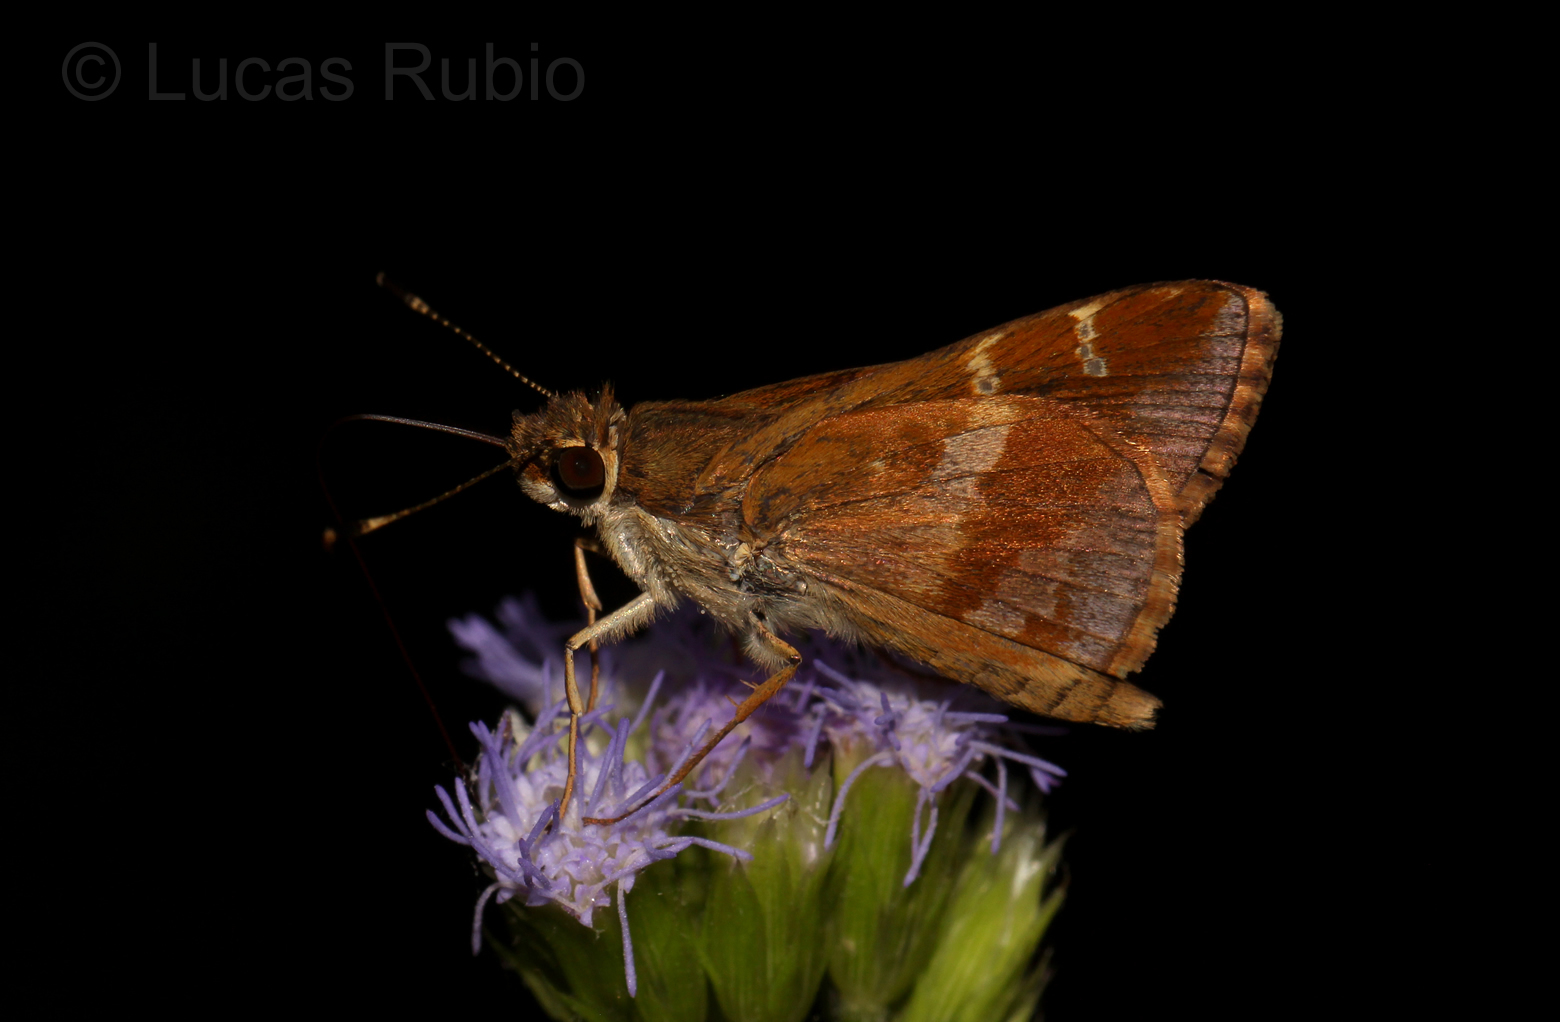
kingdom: Animalia
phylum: Arthropoda
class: Insecta
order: Lepidoptera
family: Hesperiidae
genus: Monca
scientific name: Monca ornata
